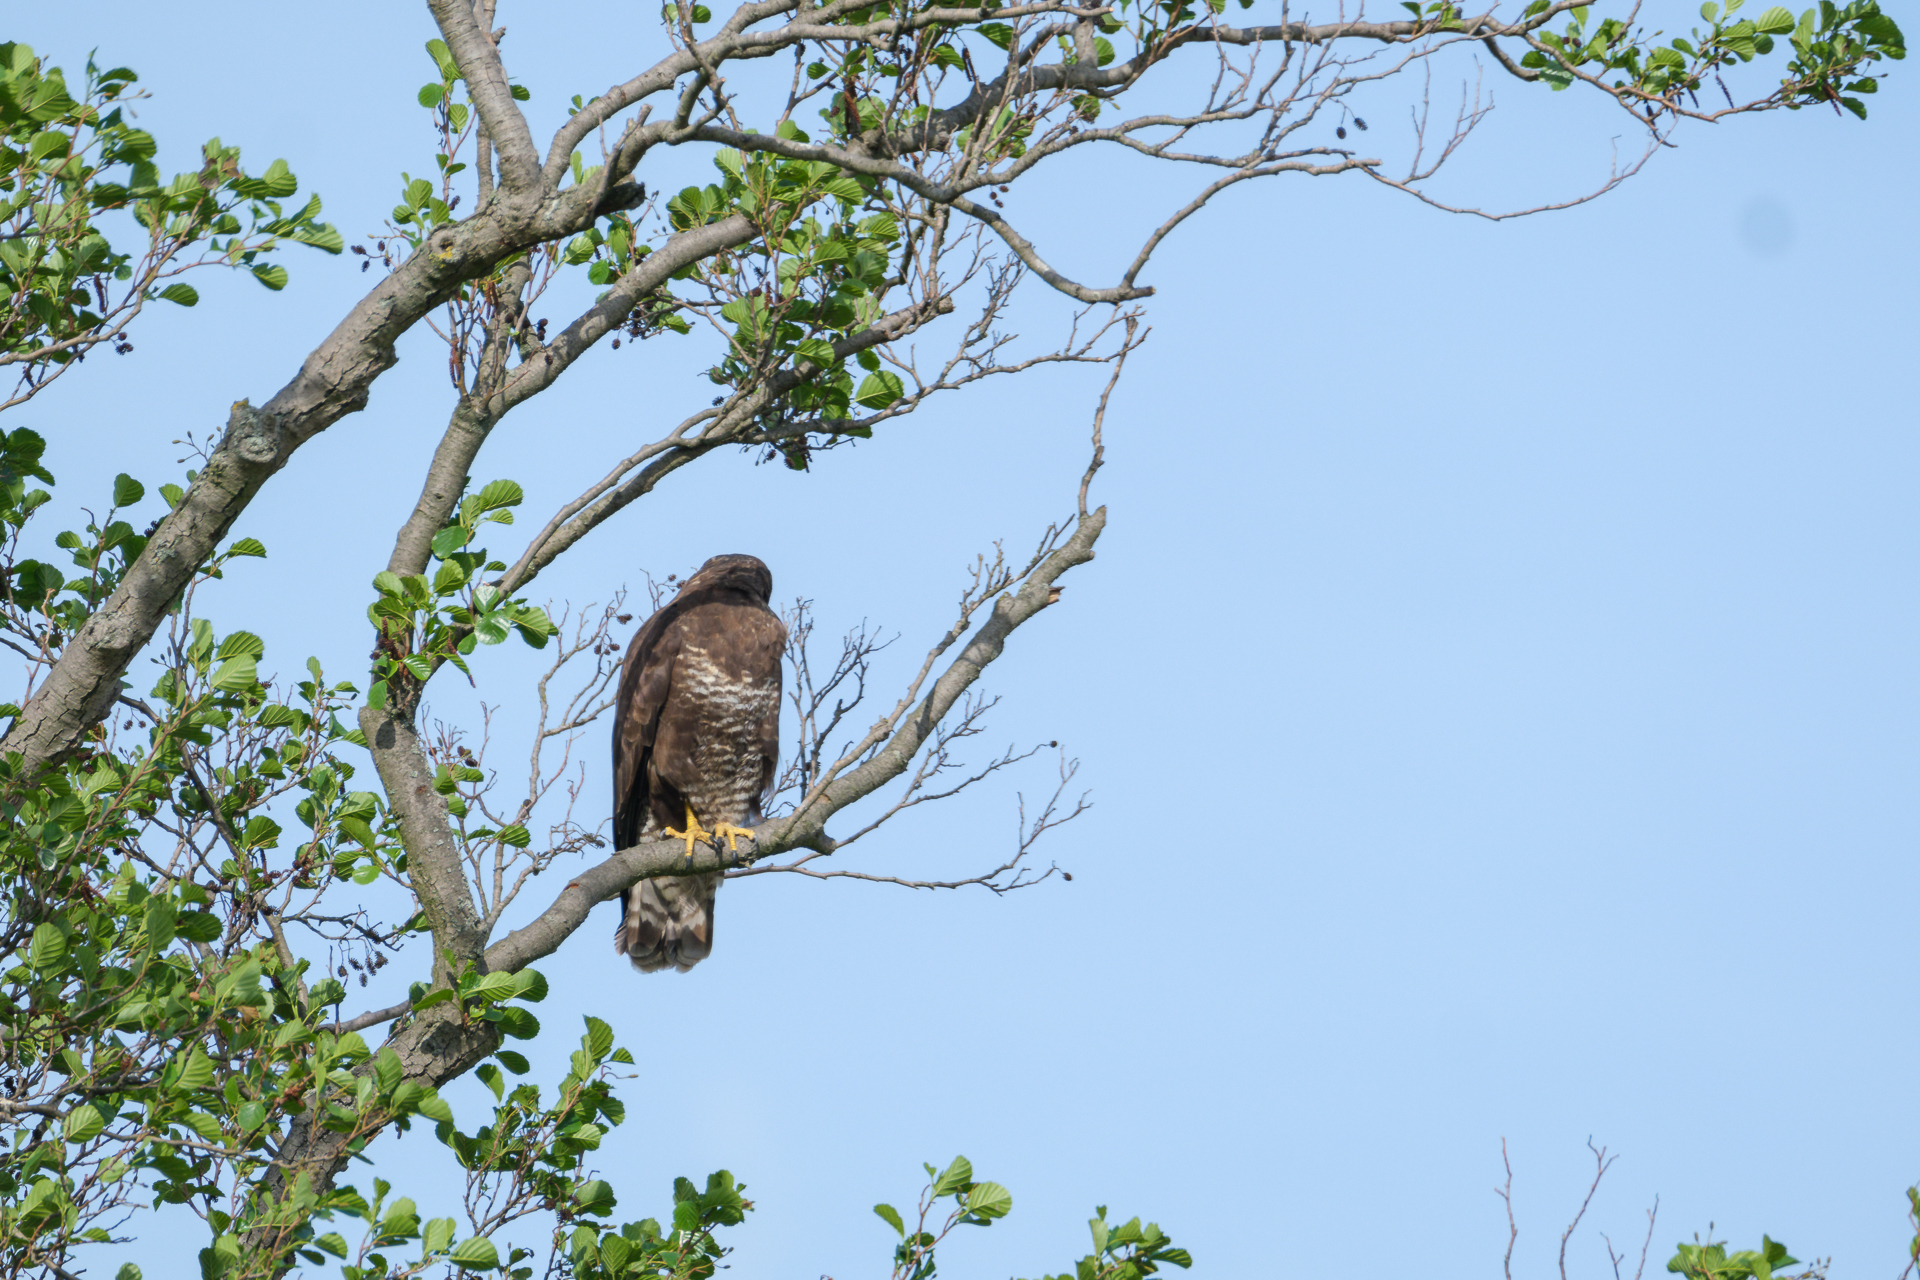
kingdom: Animalia
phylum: Chordata
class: Aves
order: Accipitriformes
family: Accipitridae
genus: Buteo
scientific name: Buteo buteo
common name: Common buzzard
